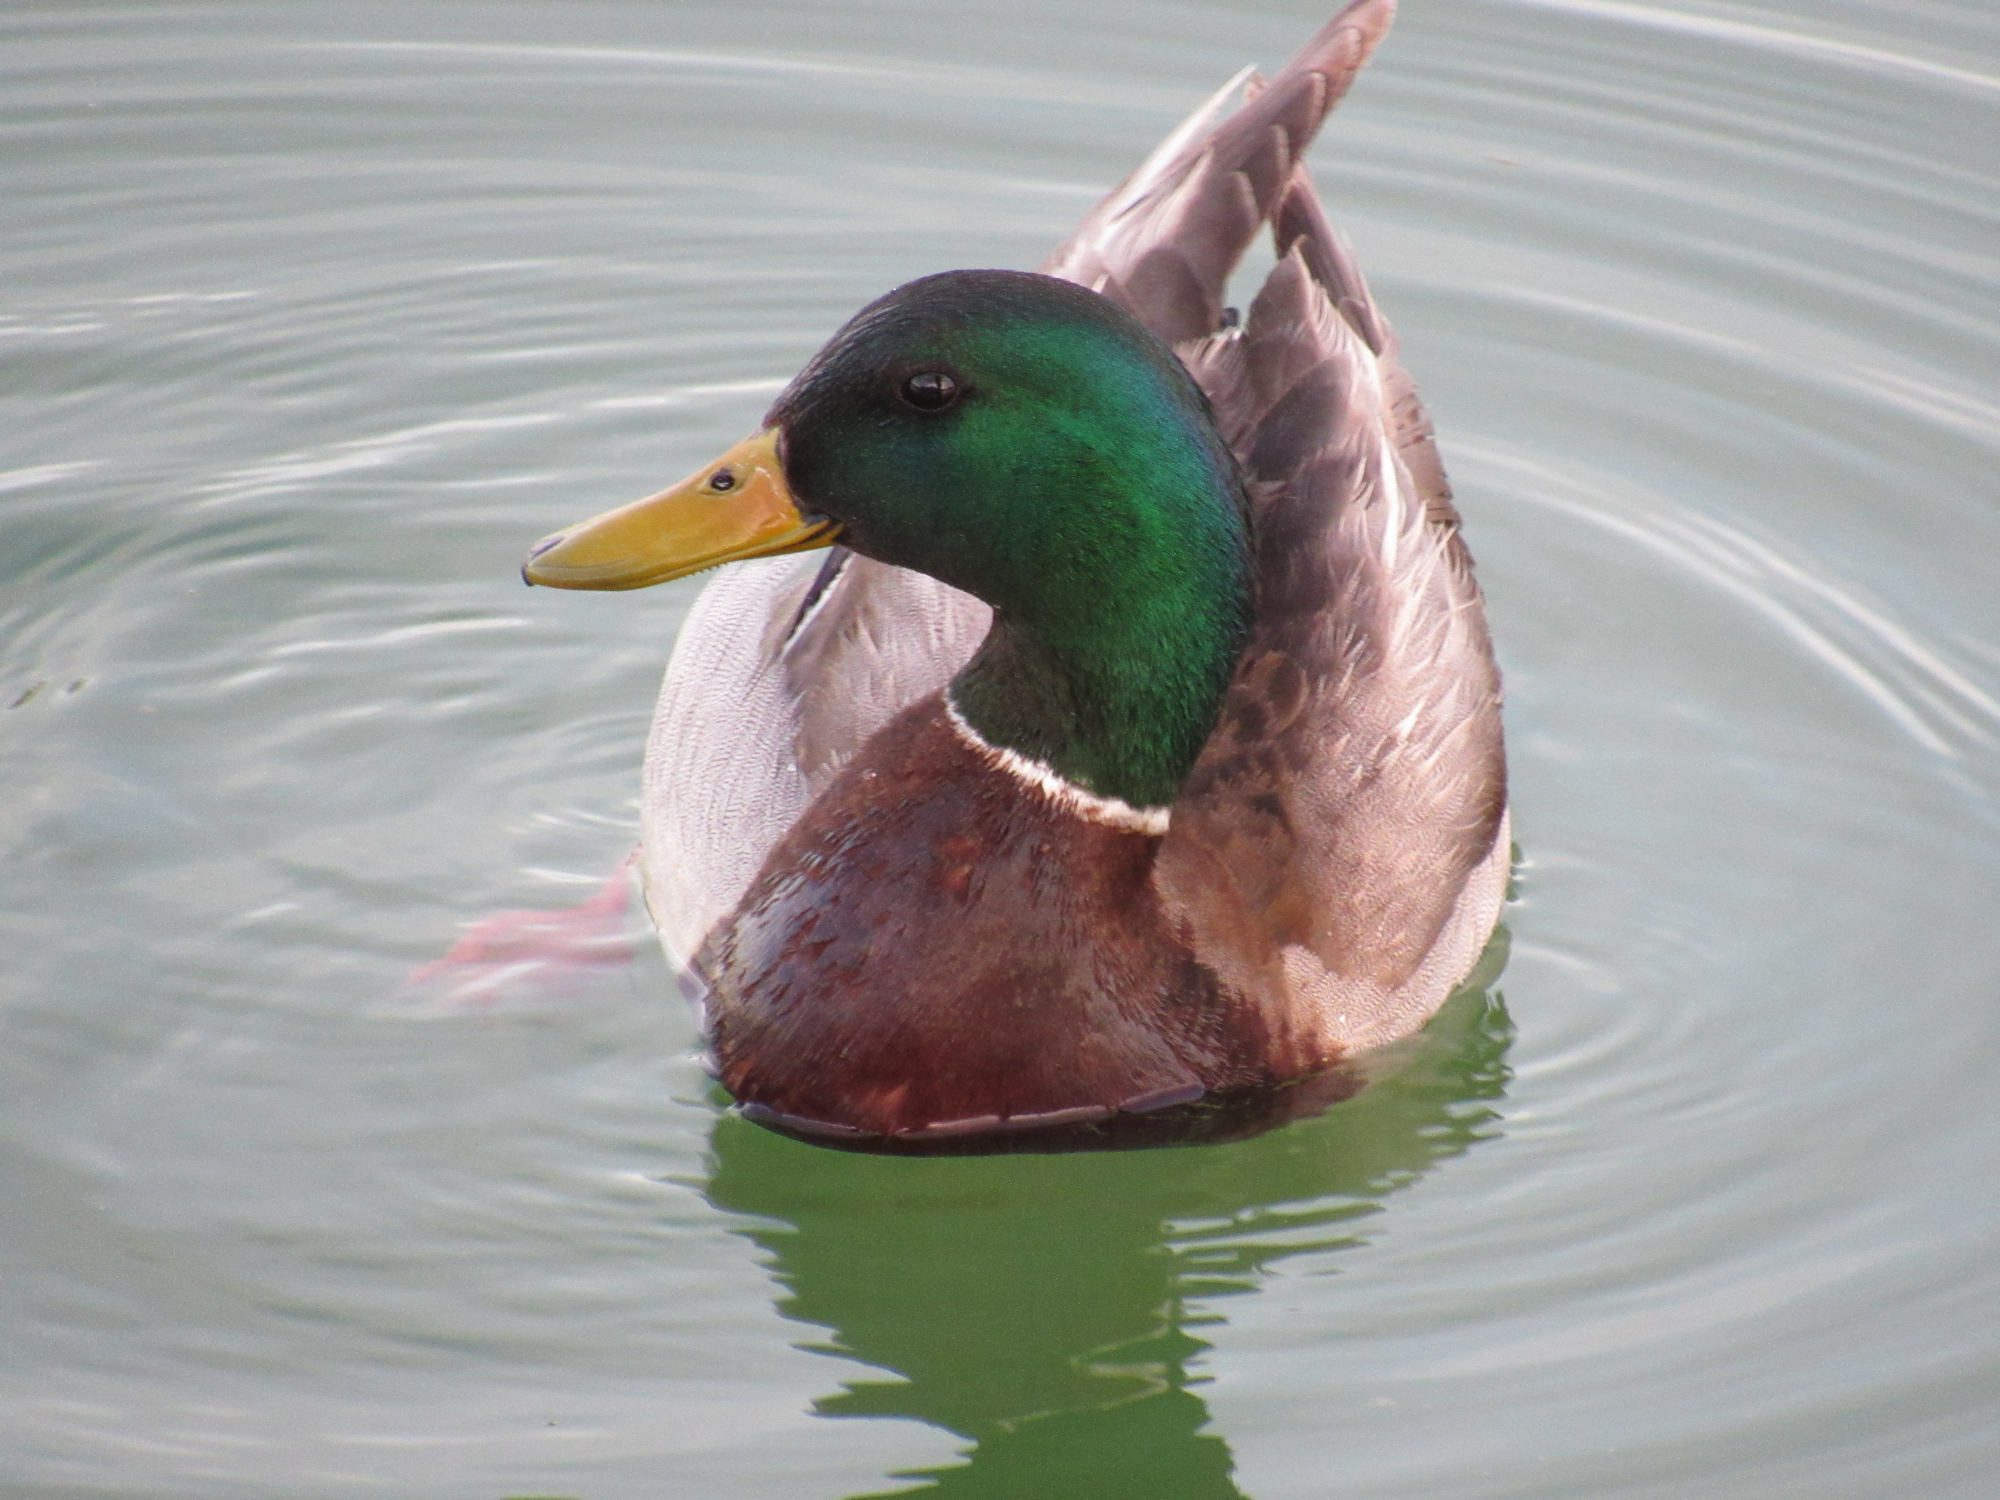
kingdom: Animalia
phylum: Chordata
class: Aves
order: Anseriformes
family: Anatidae
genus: Anas
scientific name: Anas platyrhynchos
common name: Mallard
